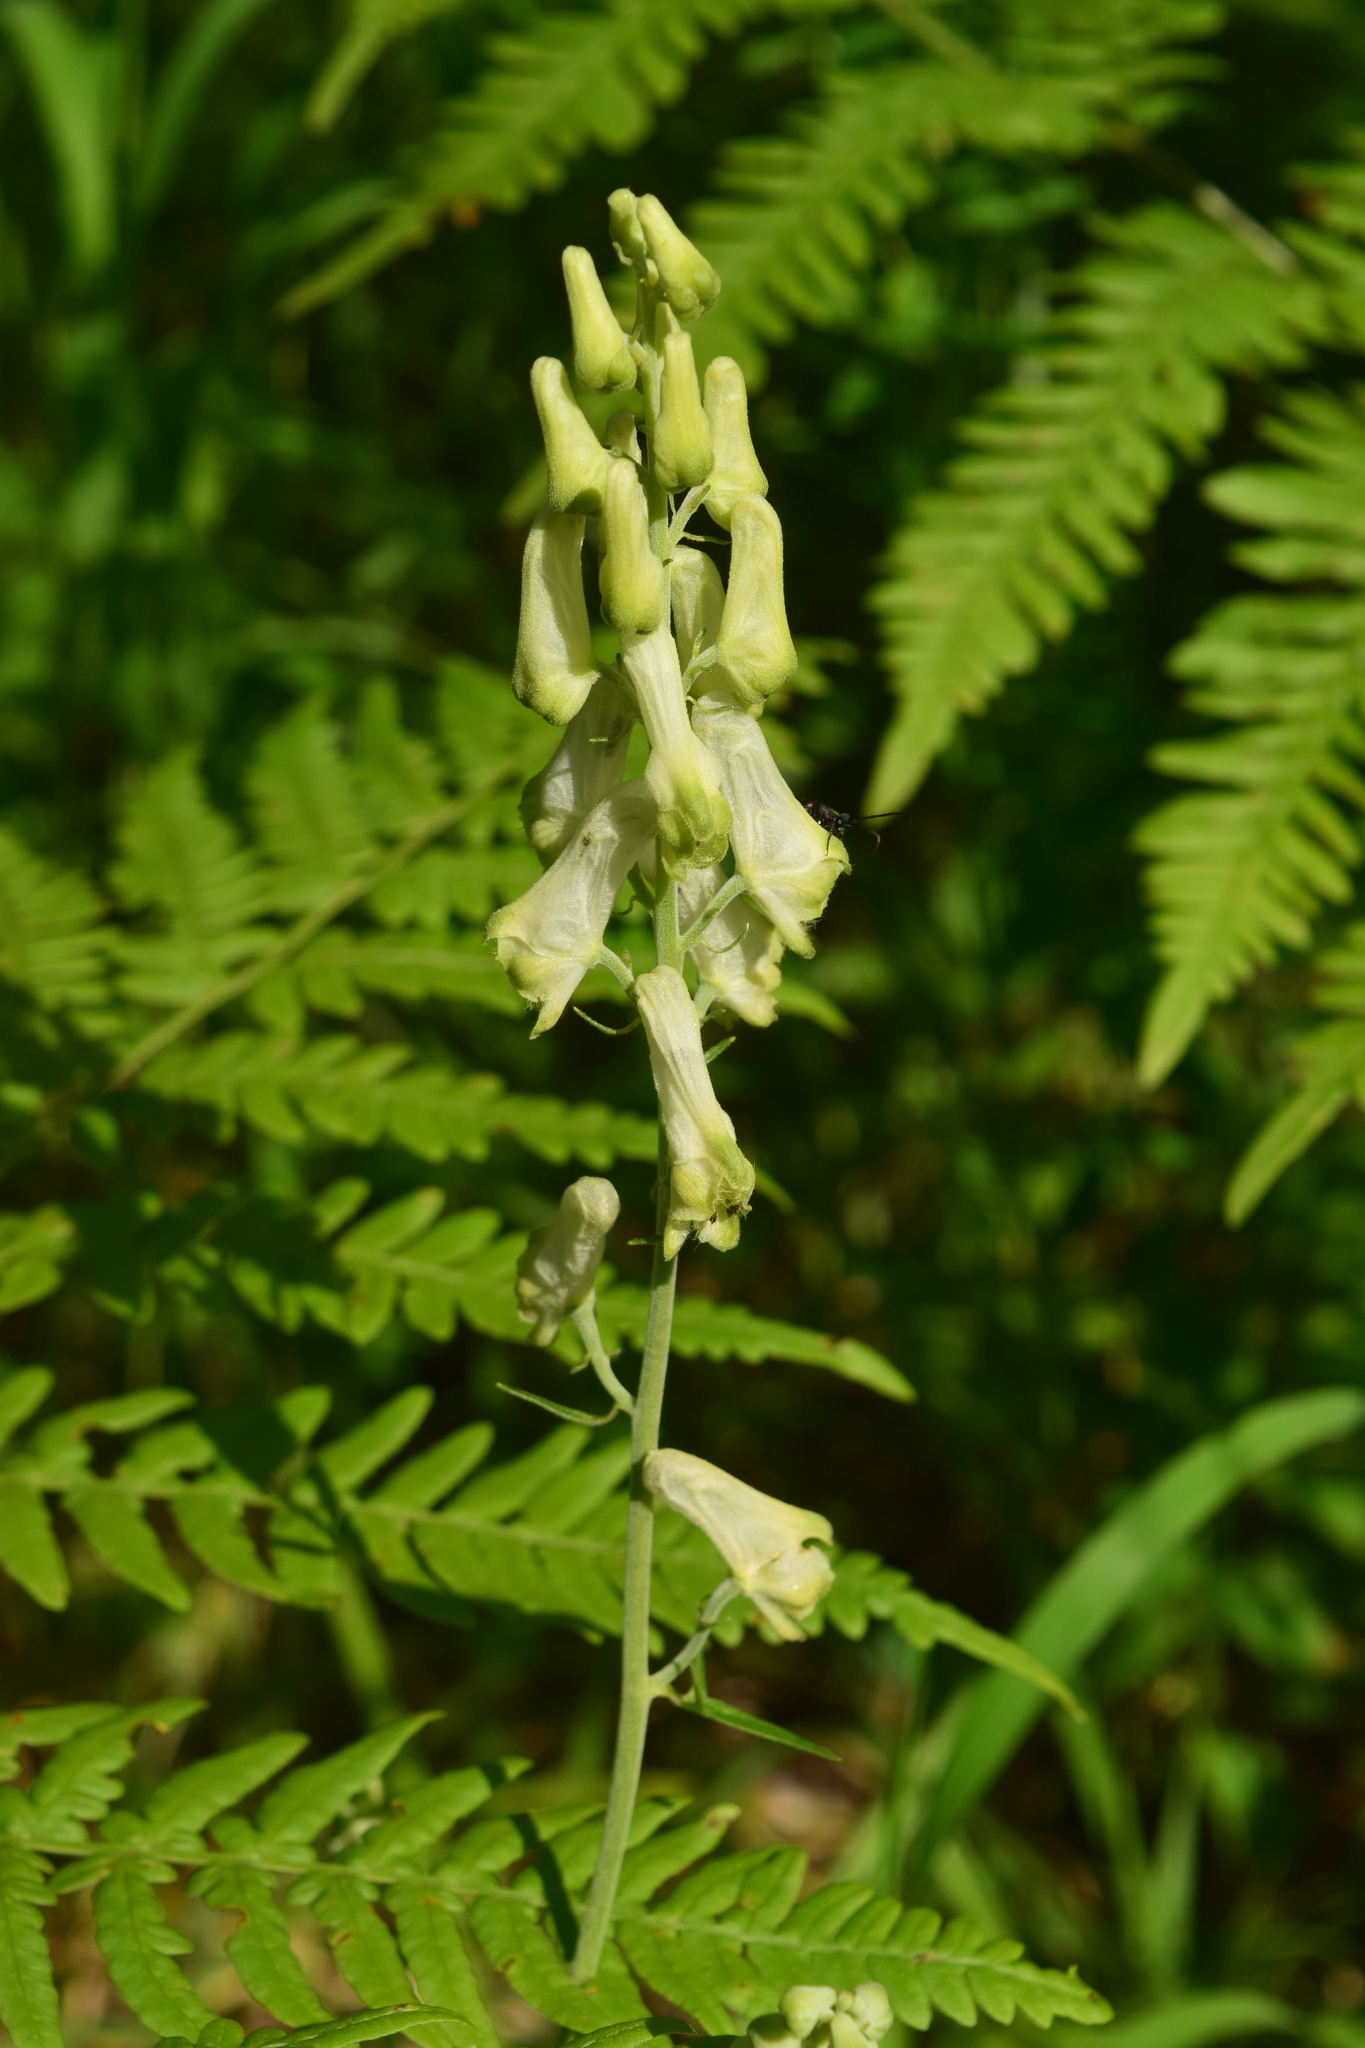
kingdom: Plantae
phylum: Tracheophyta
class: Magnoliopsida
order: Ranunculales
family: Ranunculaceae
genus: Aconitum
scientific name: Aconitum lasiostomum
